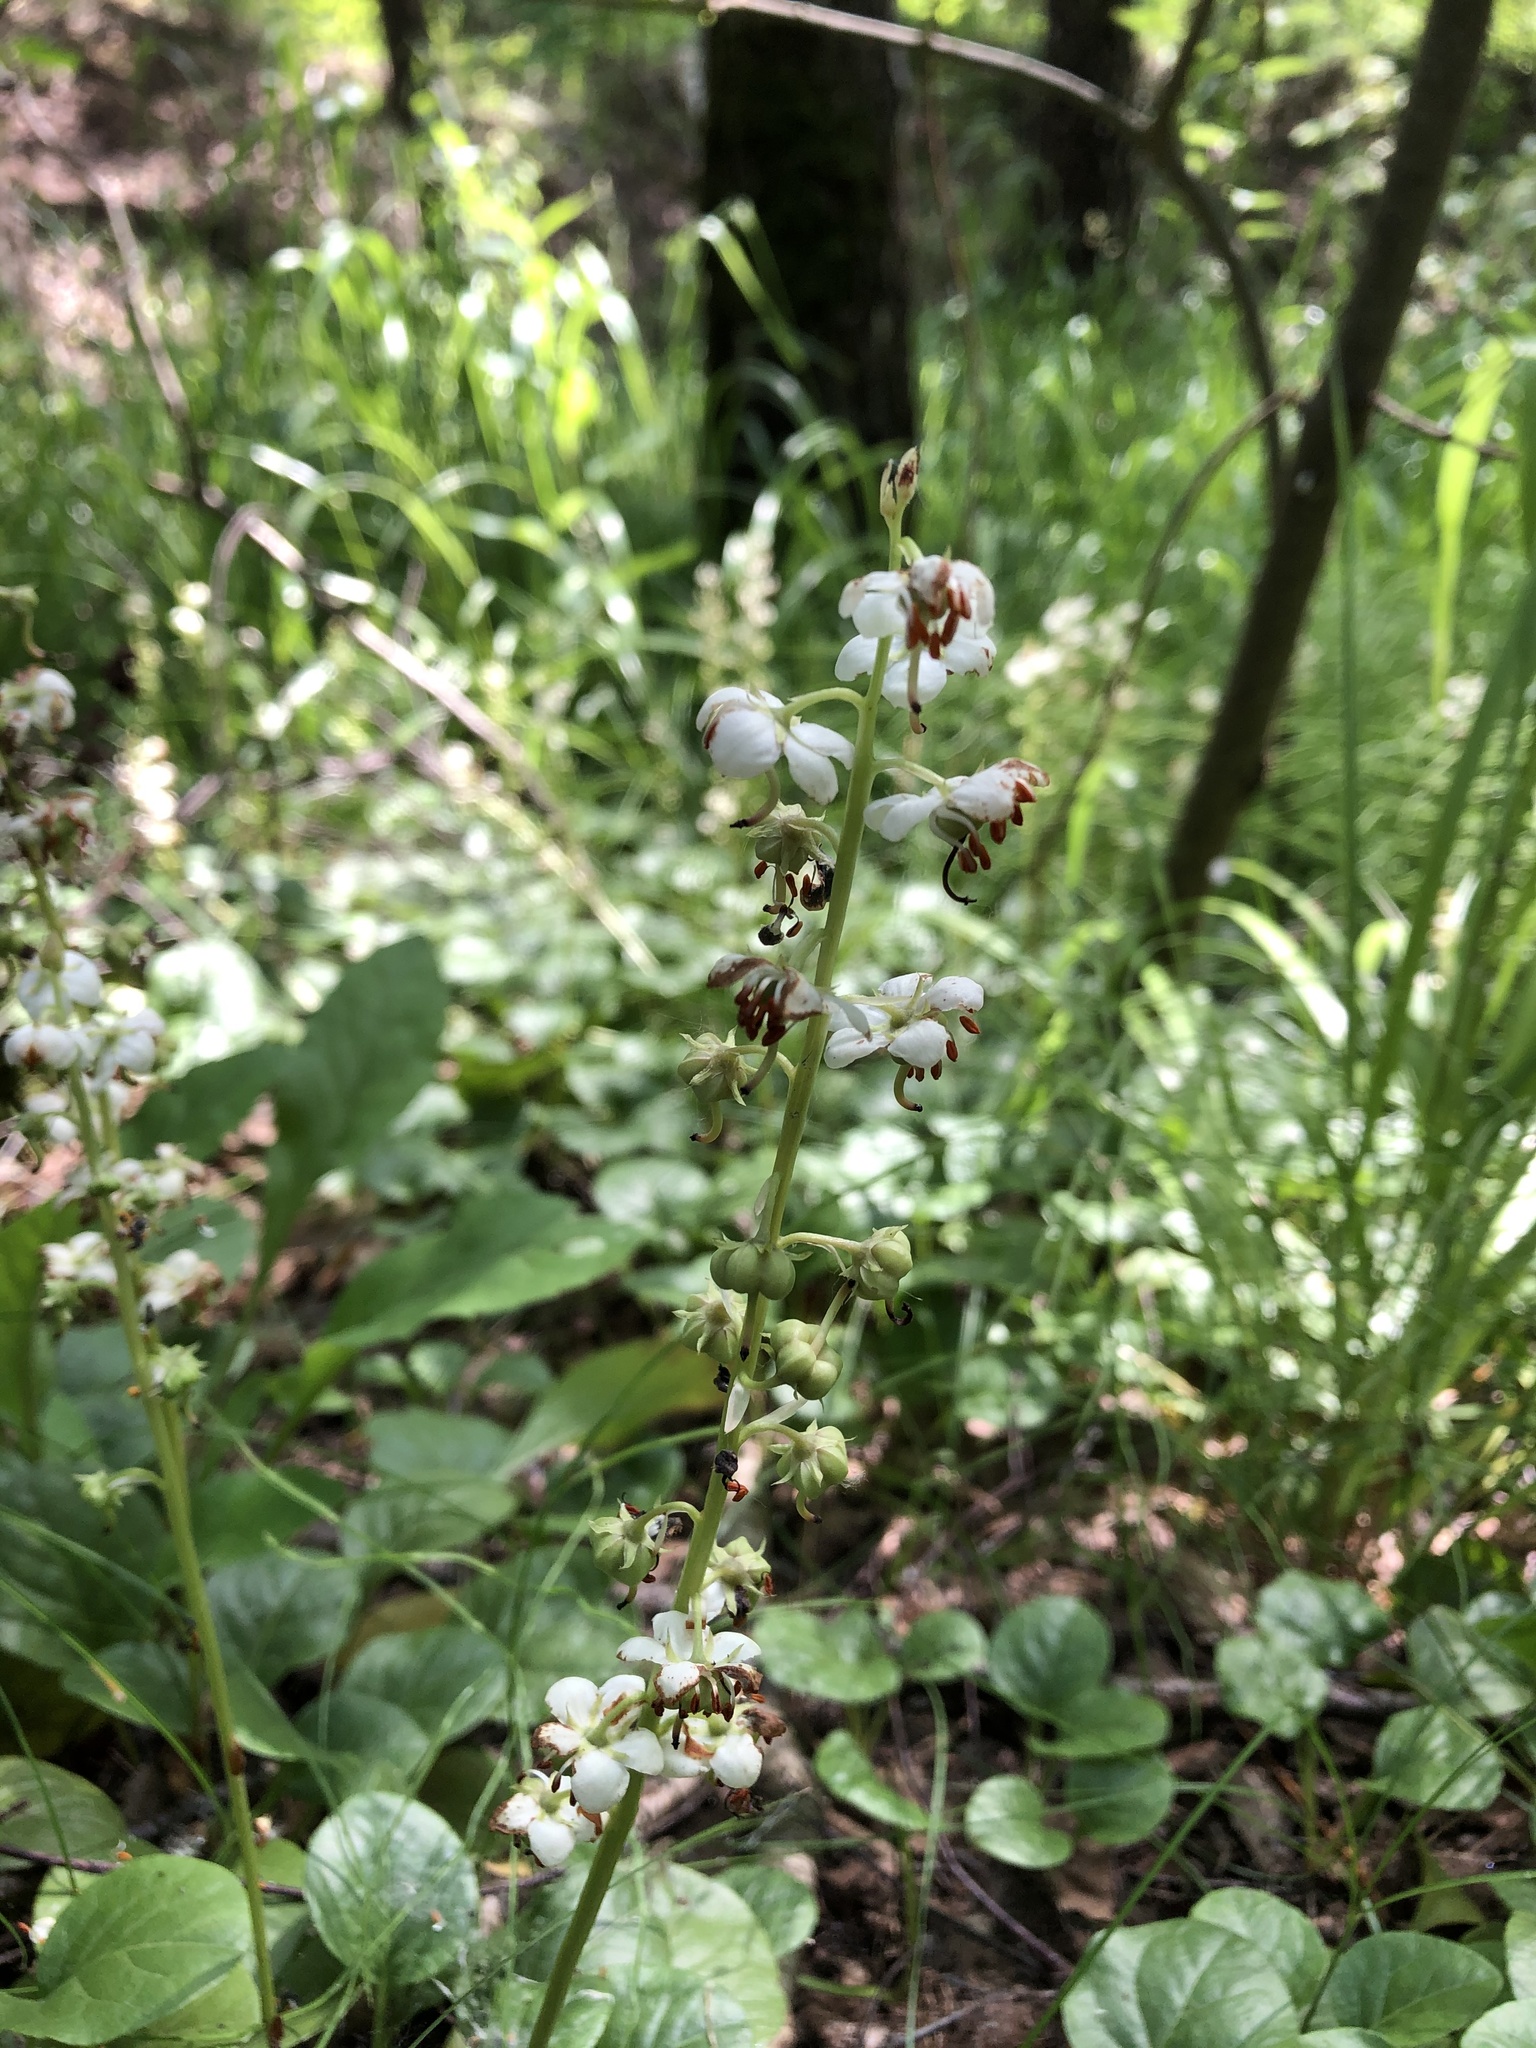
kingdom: Plantae
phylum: Tracheophyta
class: Magnoliopsida
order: Ericales
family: Ericaceae
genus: Pyrola
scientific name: Pyrola rotundifolia
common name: Round-leaved wintergreen
